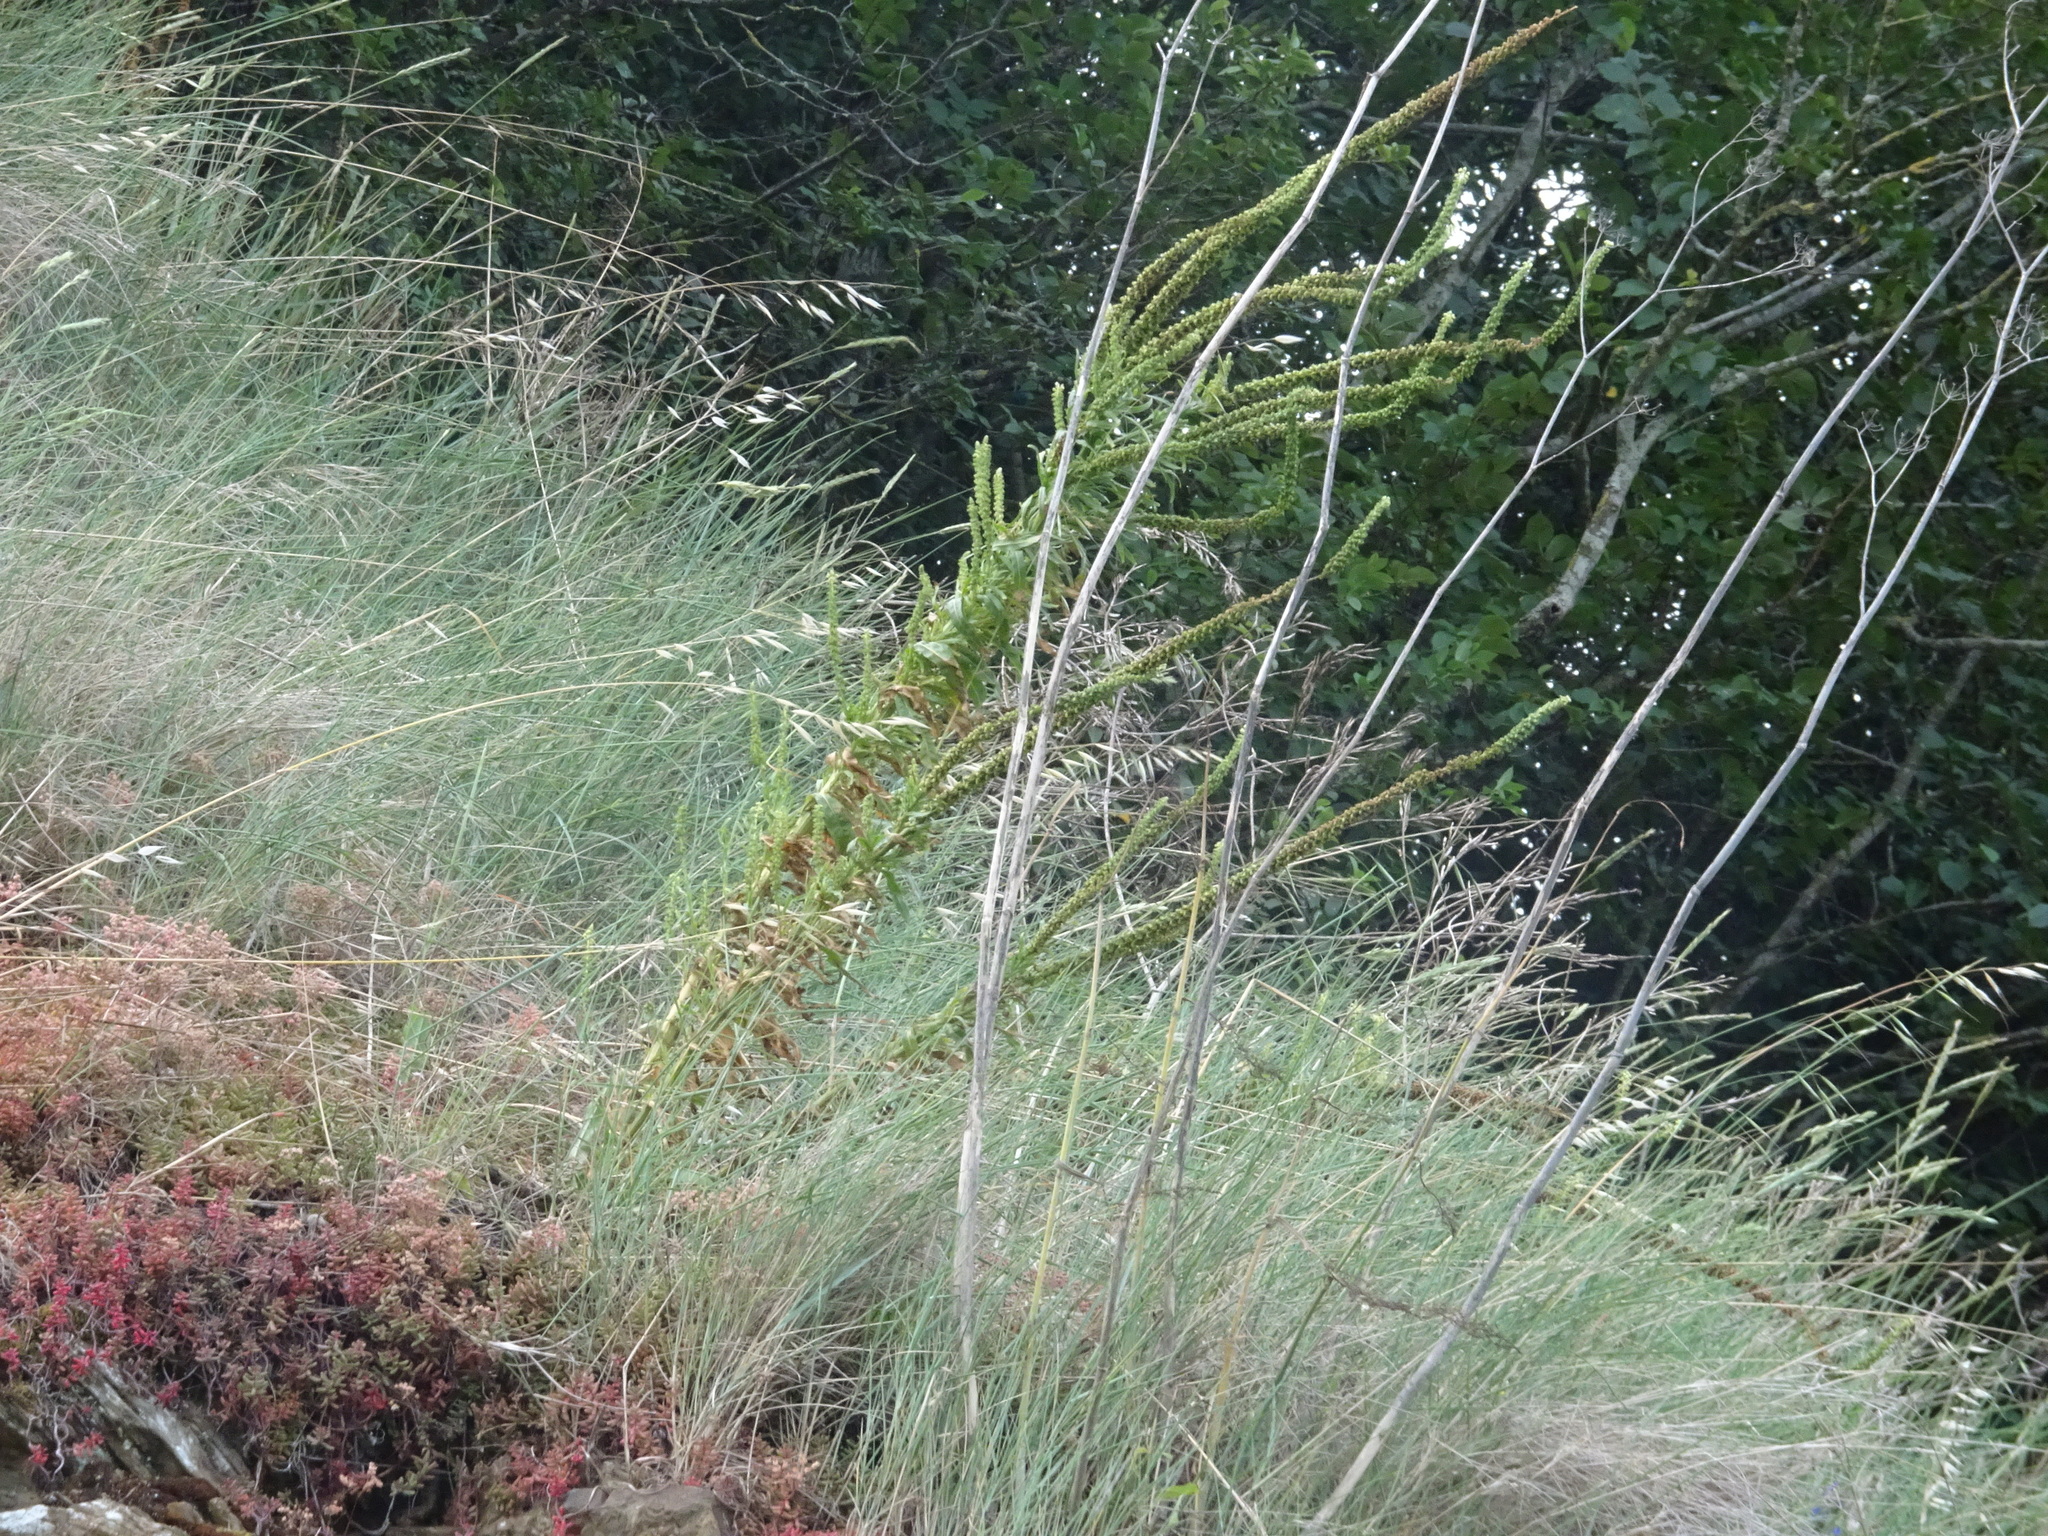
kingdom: Plantae
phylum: Tracheophyta
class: Magnoliopsida
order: Brassicales
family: Resedaceae
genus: Reseda
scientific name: Reseda luteola
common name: Weld
